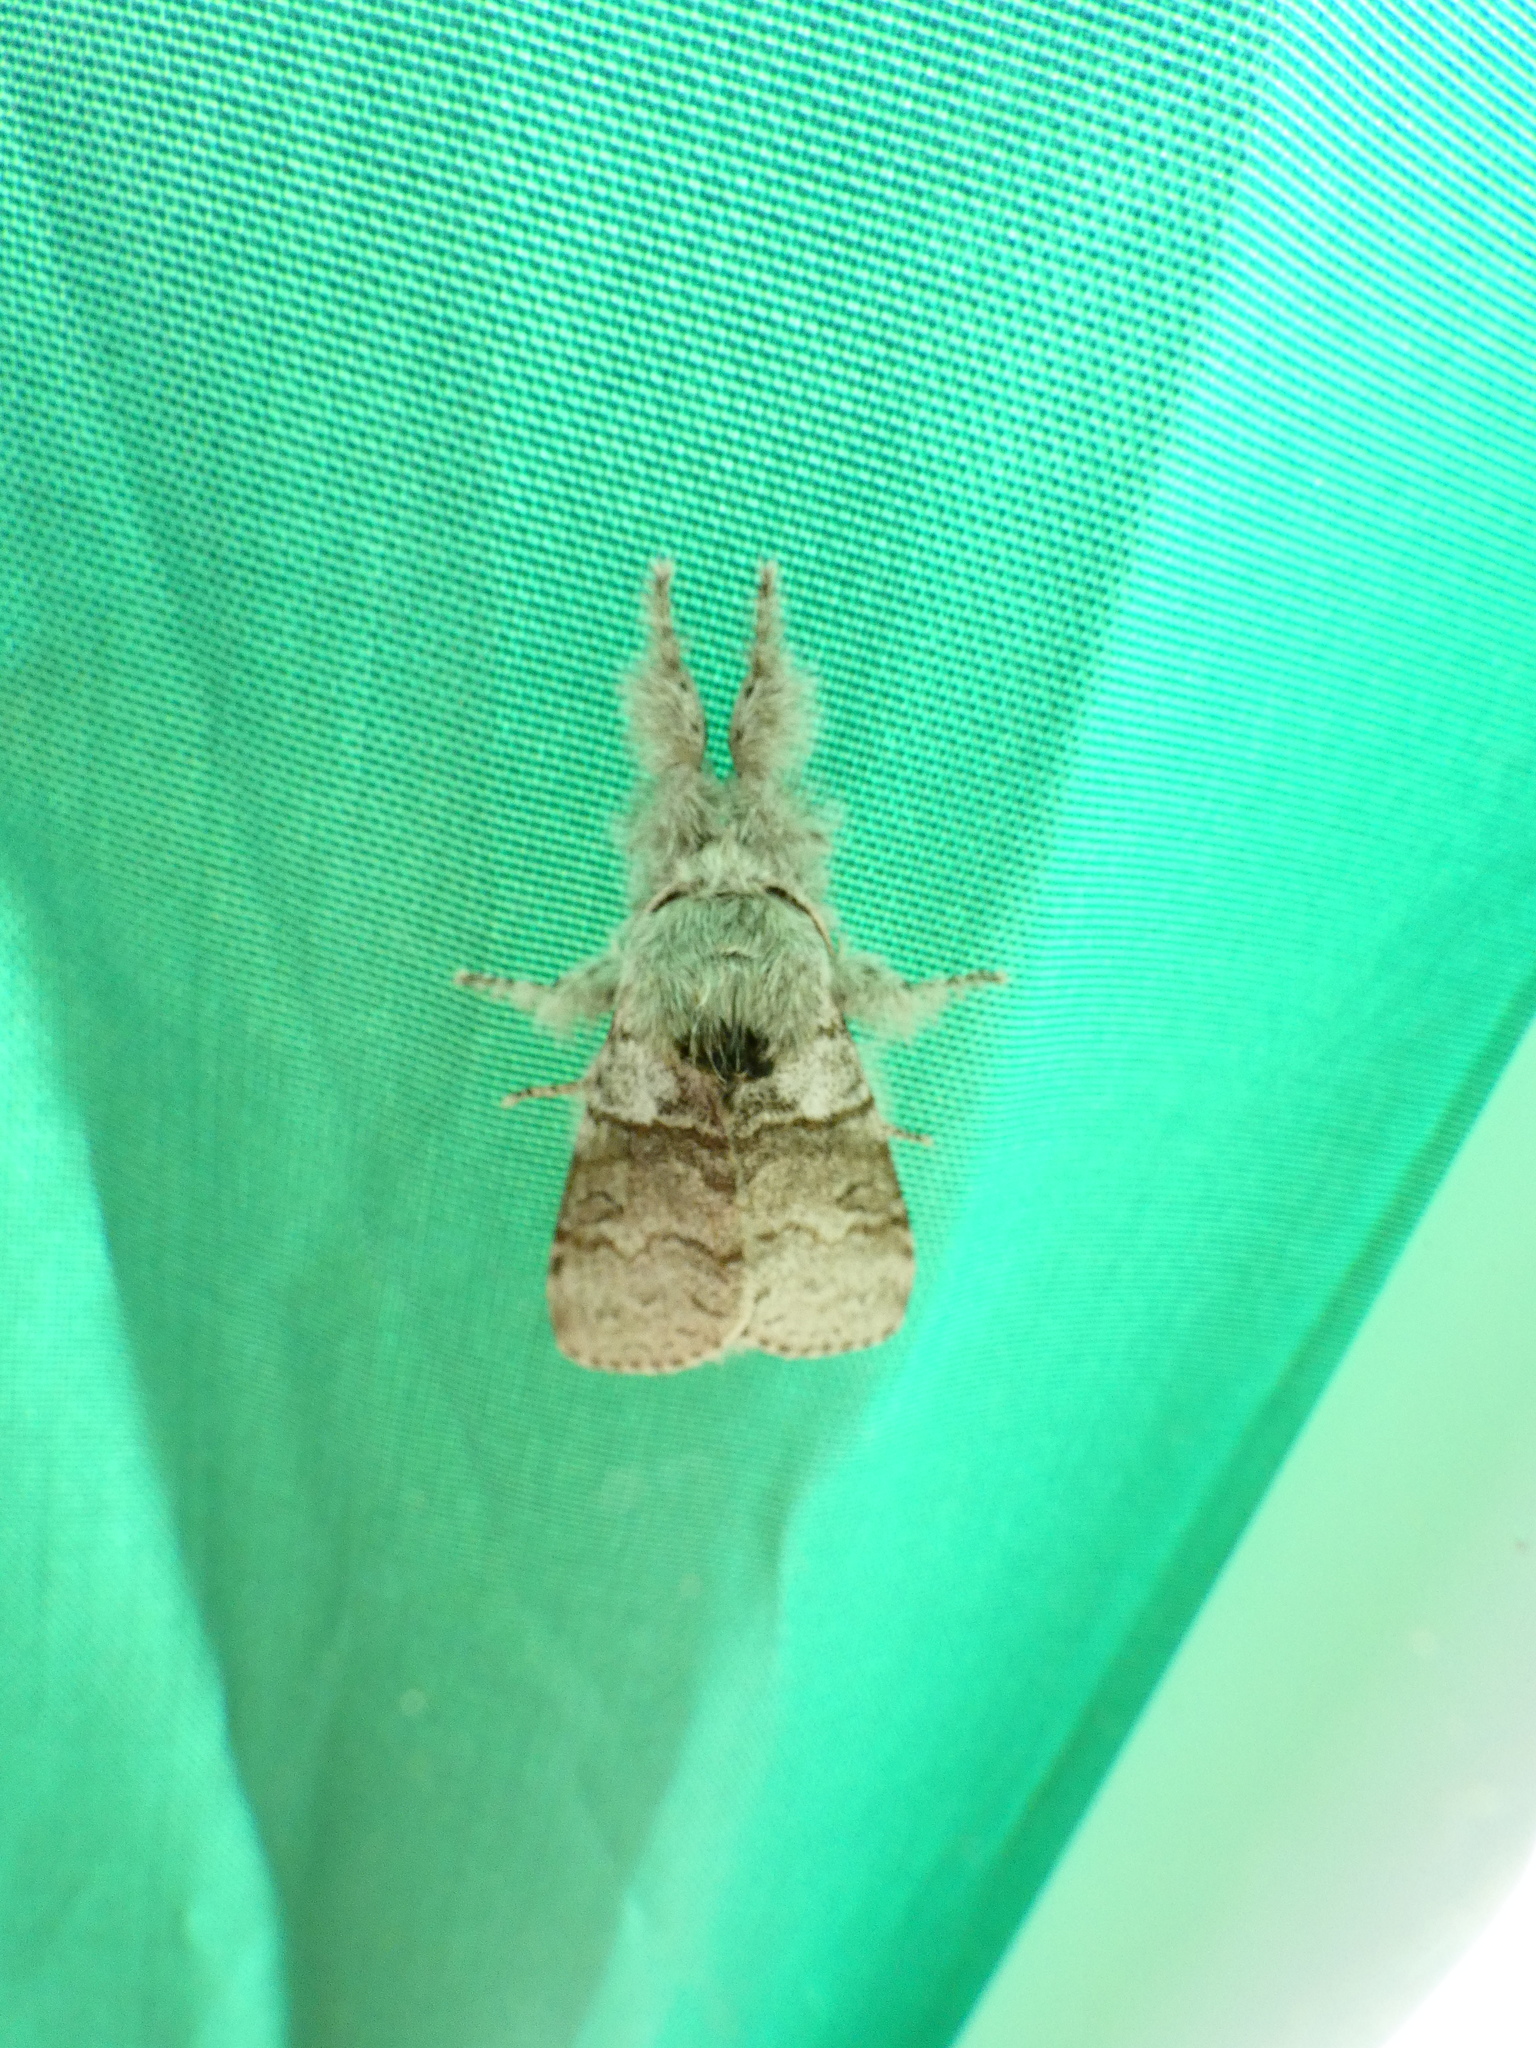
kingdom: Animalia
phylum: Arthropoda
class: Insecta
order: Lepidoptera
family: Erebidae
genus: Calliteara
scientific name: Calliteara pudibunda
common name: Pale tussock
